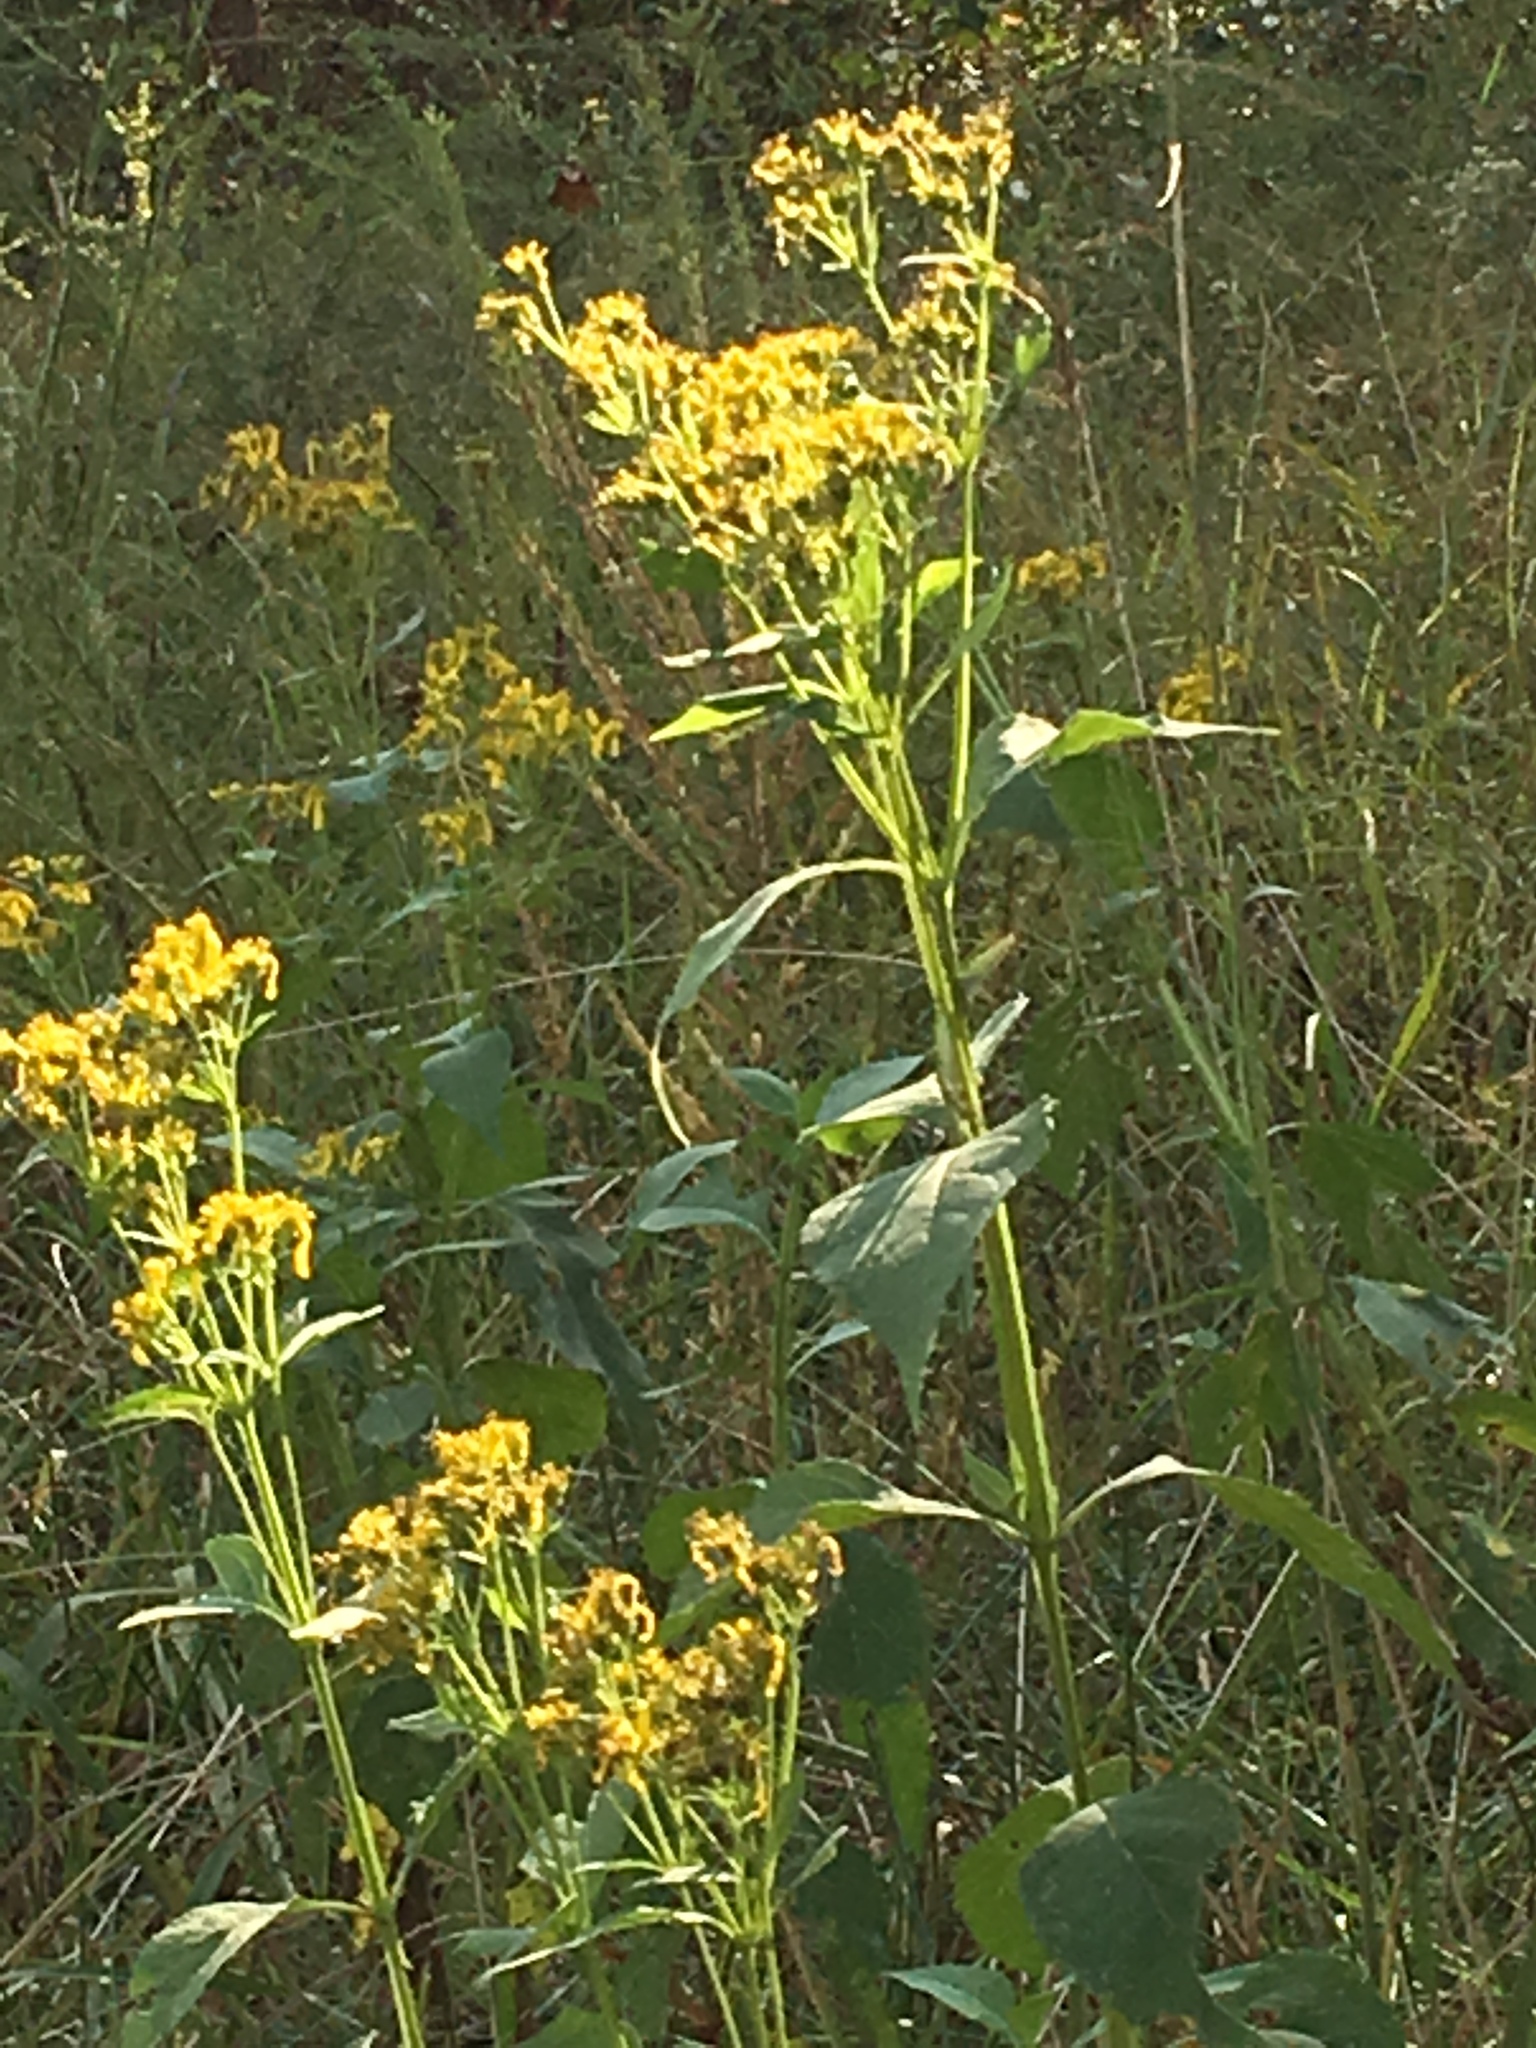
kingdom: Plantae
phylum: Tracheophyta
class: Magnoliopsida
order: Asterales
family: Asteraceae
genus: Verbesina
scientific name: Verbesina occidentalis
